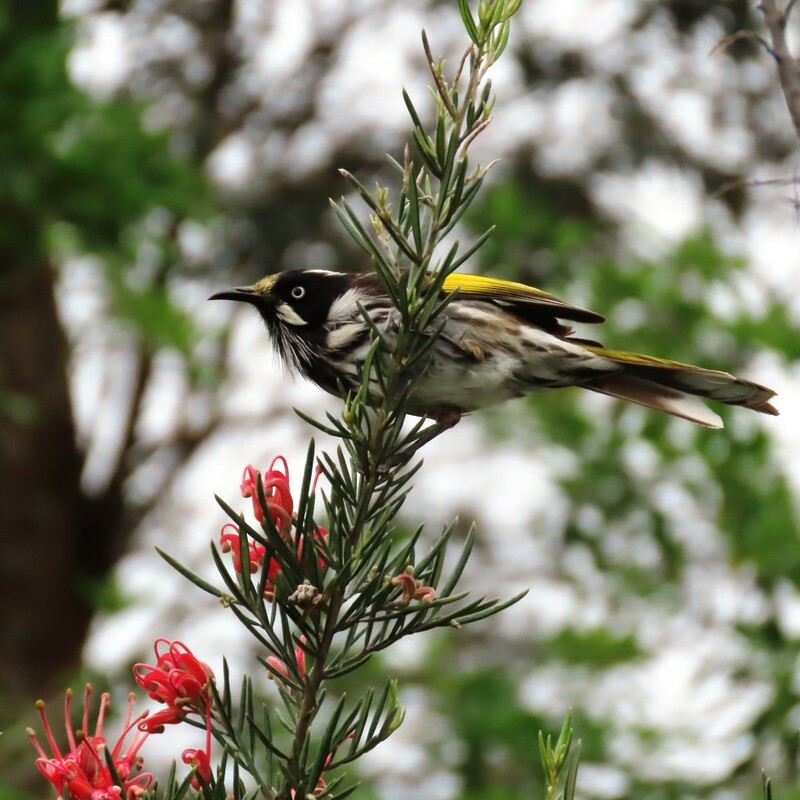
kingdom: Animalia
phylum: Chordata
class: Aves
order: Passeriformes
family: Meliphagidae
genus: Phylidonyris
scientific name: Phylidonyris novaehollandiae
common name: New holland honeyeater
